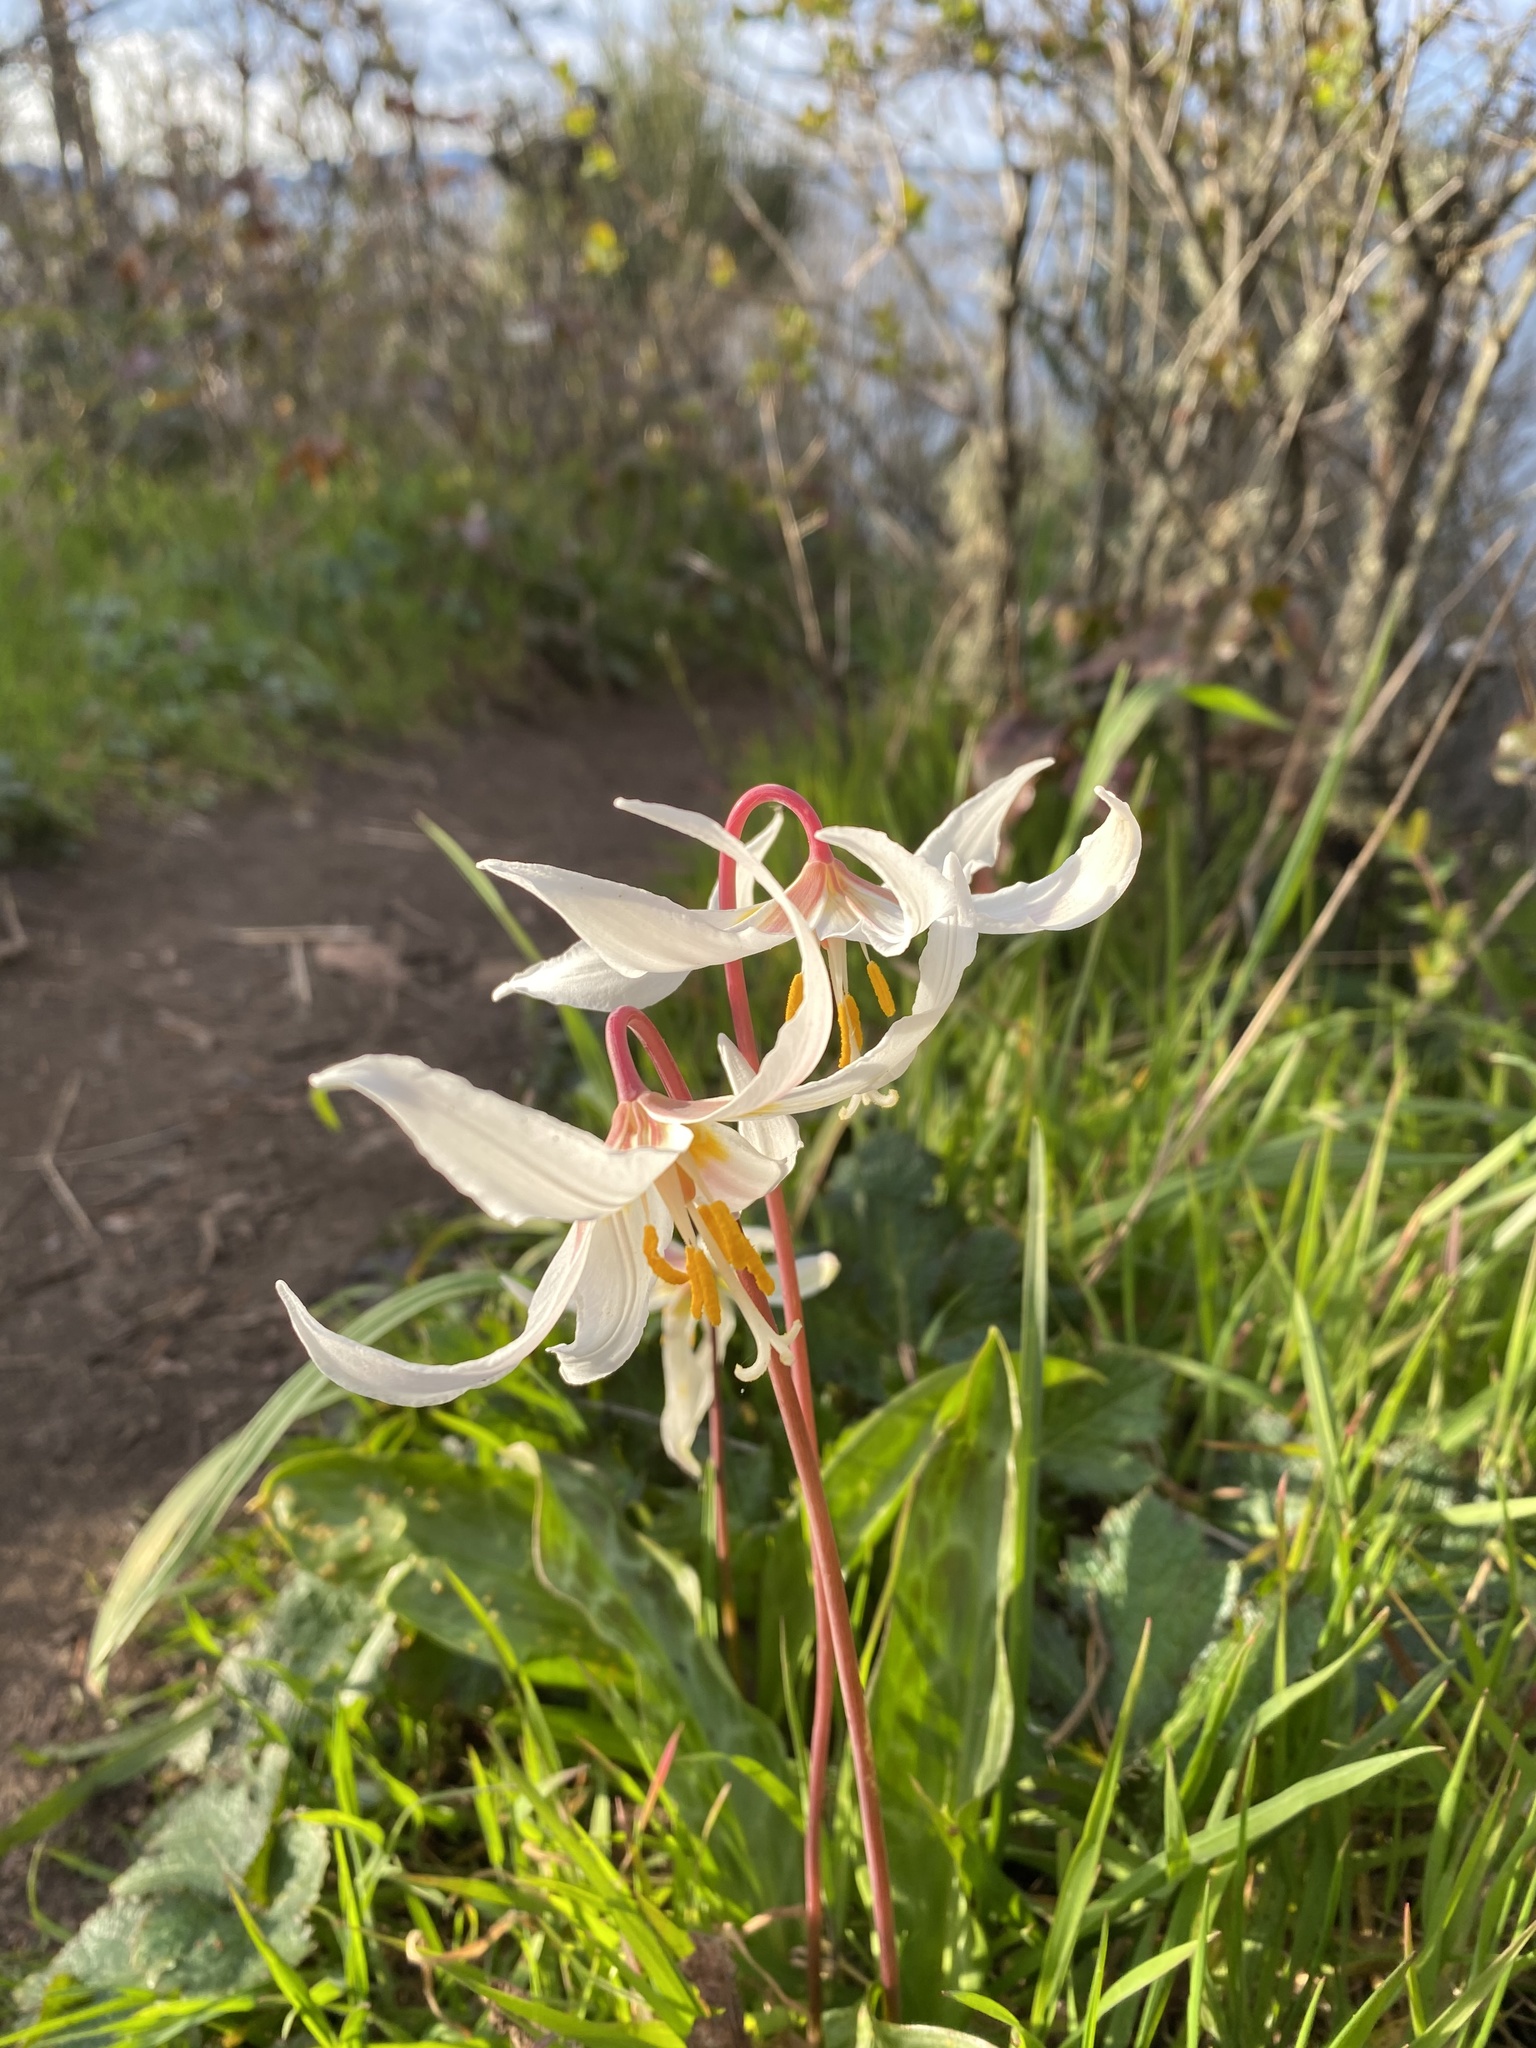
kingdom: Plantae
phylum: Tracheophyta
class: Liliopsida
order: Liliales
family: Liliaceae
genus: Erythronium
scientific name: Erythronium oregonum
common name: Giant adder's-tongue
